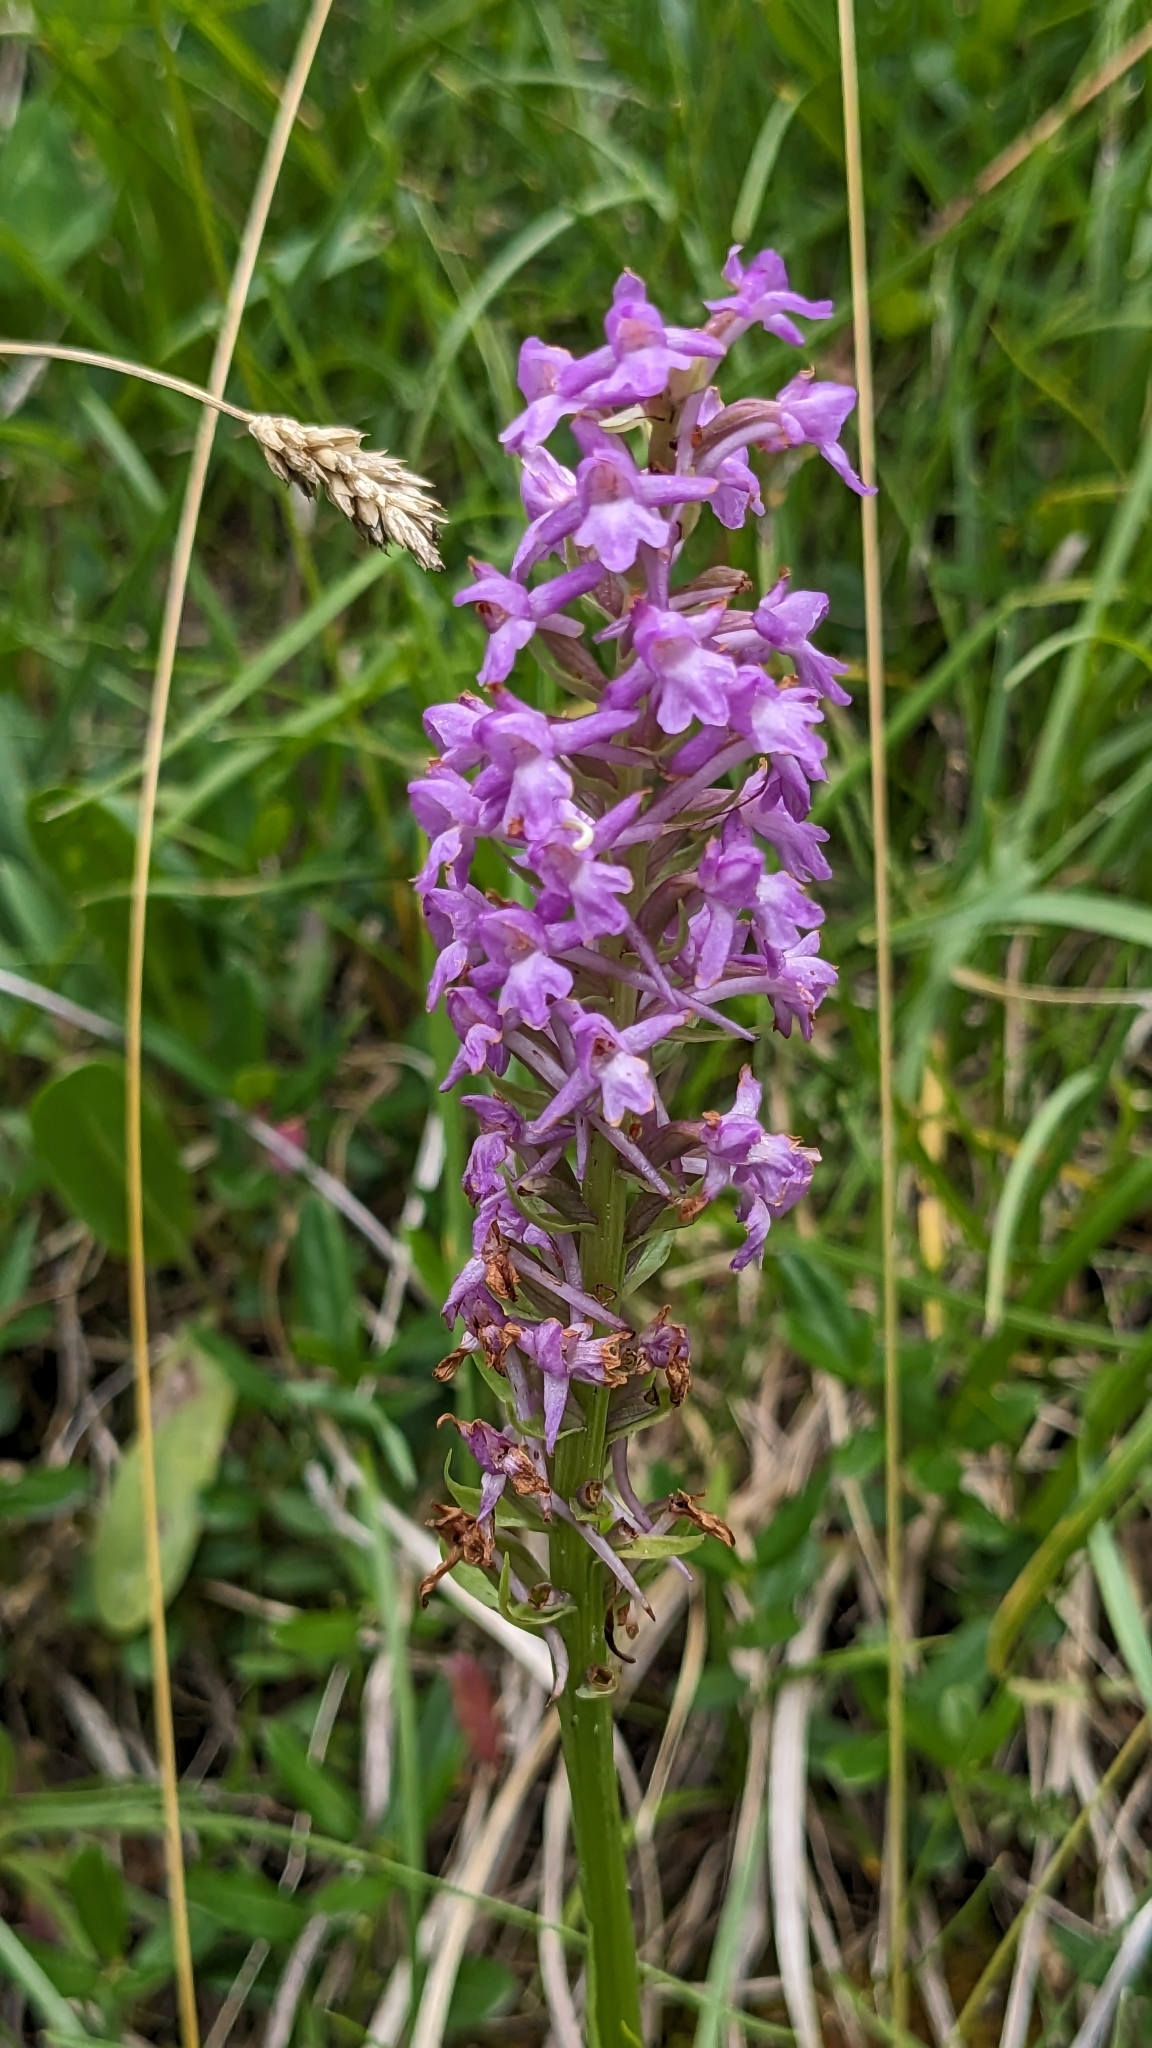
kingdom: Plantae
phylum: Tracheophyta
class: Liliopsida
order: Asparagales
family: Orchidaceae
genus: Gymnadenia
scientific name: Gymnadenia conopsea
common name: Fragrant orchid
